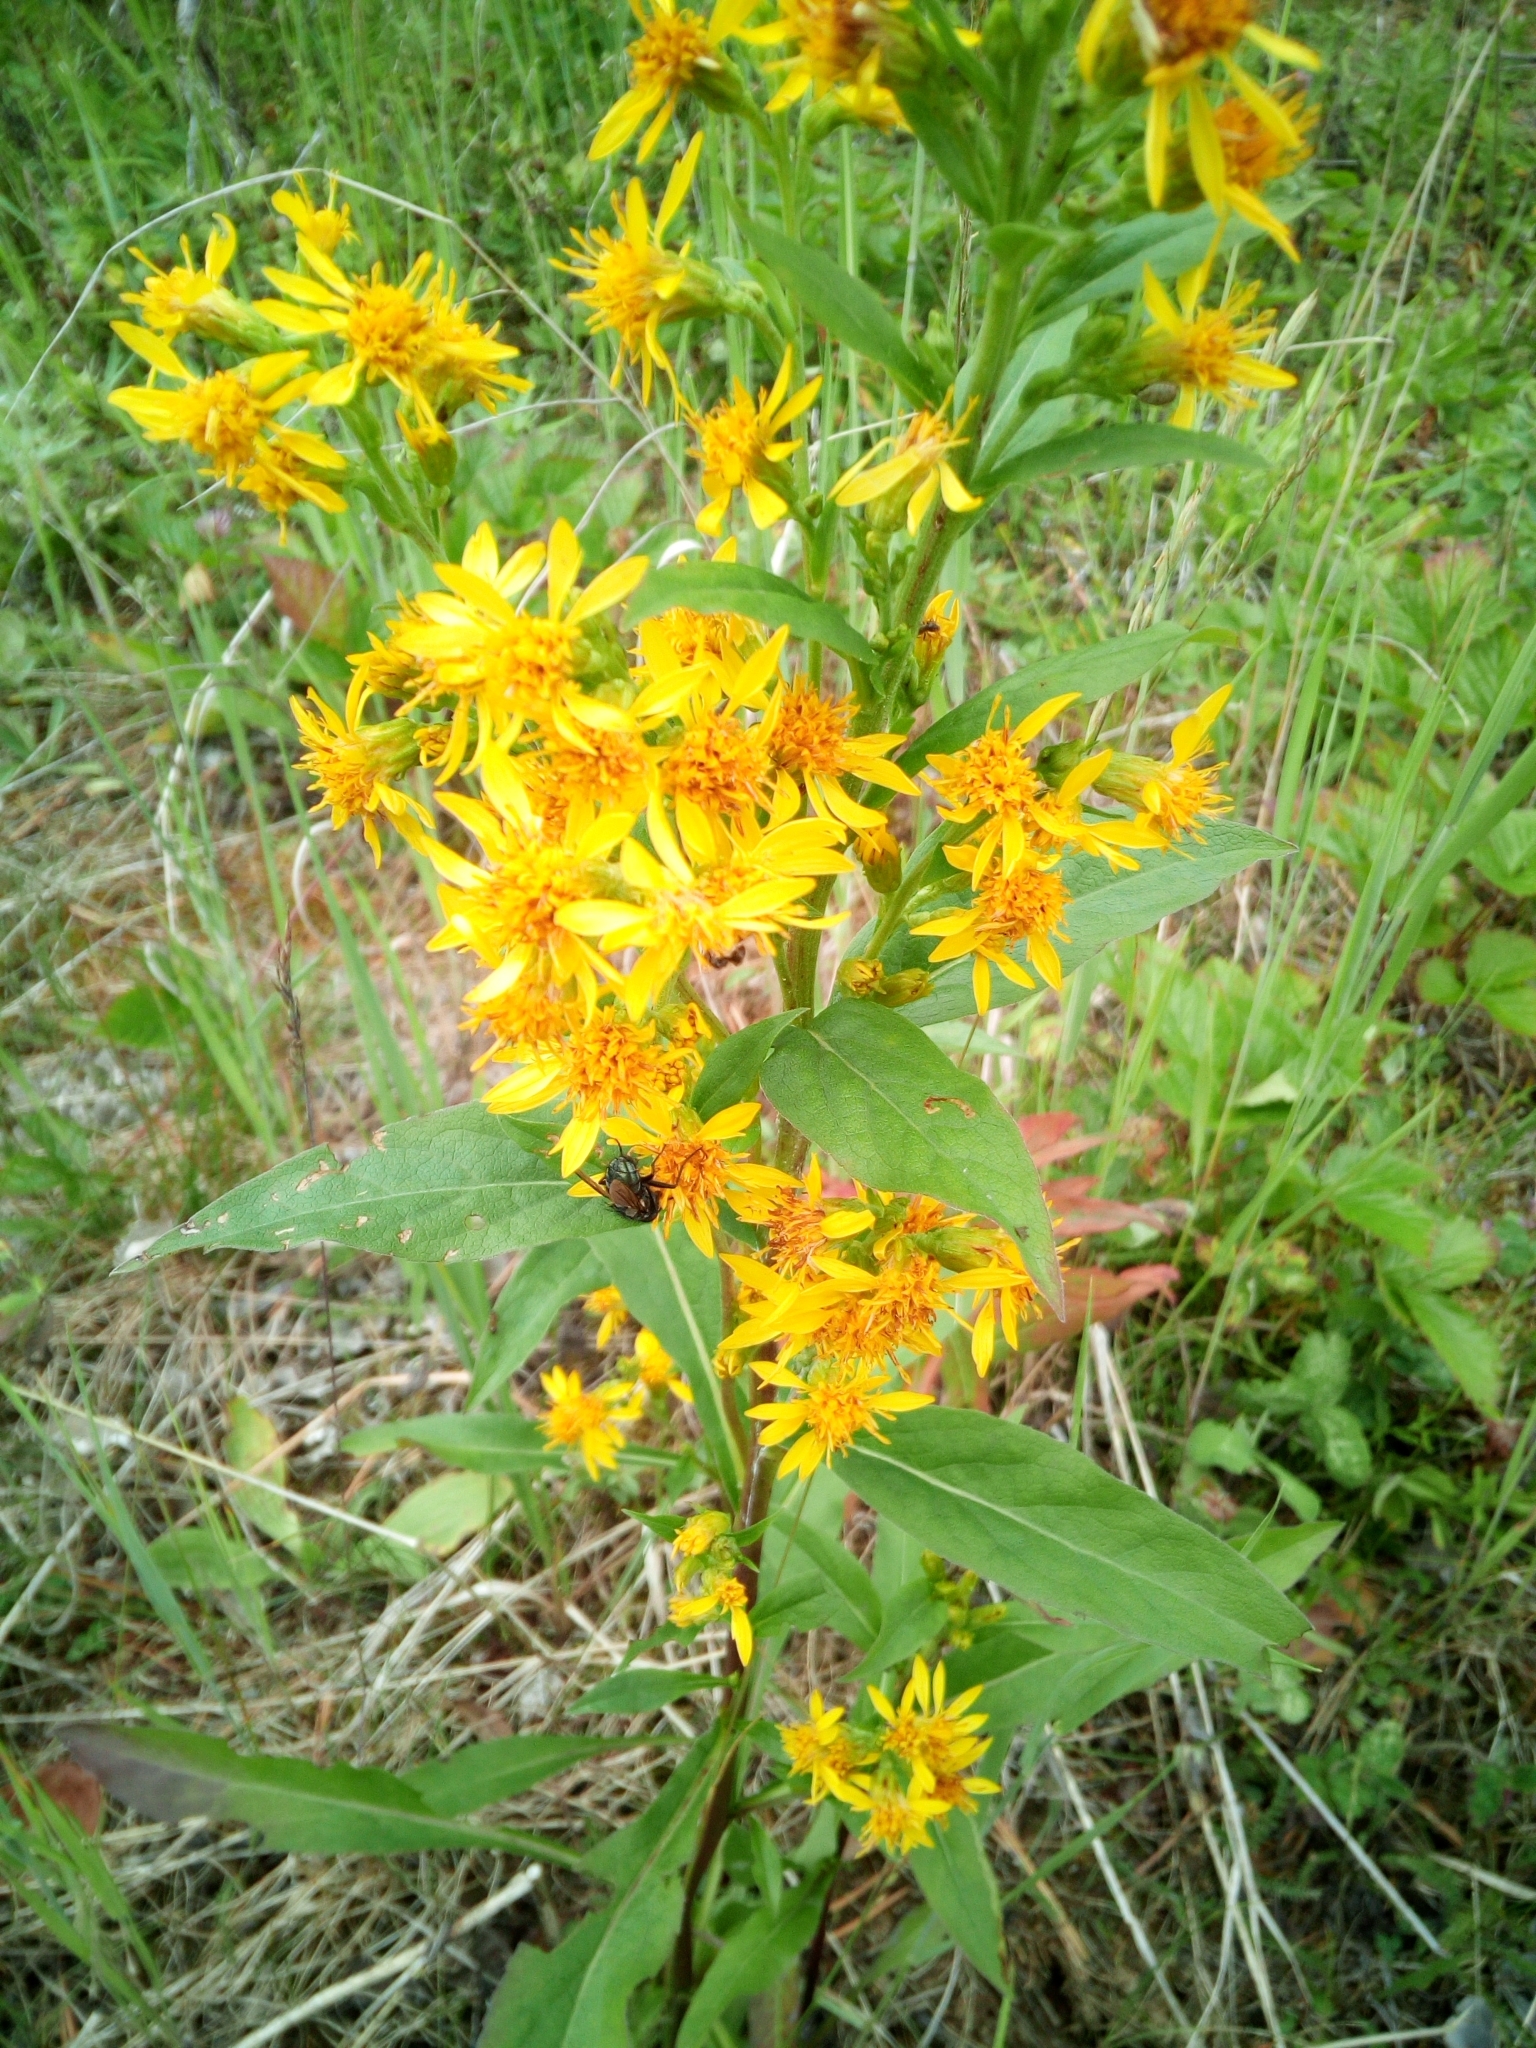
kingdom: Plantae
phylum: Tracheophyta
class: Magnoliopsida
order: Asterales
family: Asteraceae
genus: Solidago
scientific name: Solidago virgaurea
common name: Goldenrod
